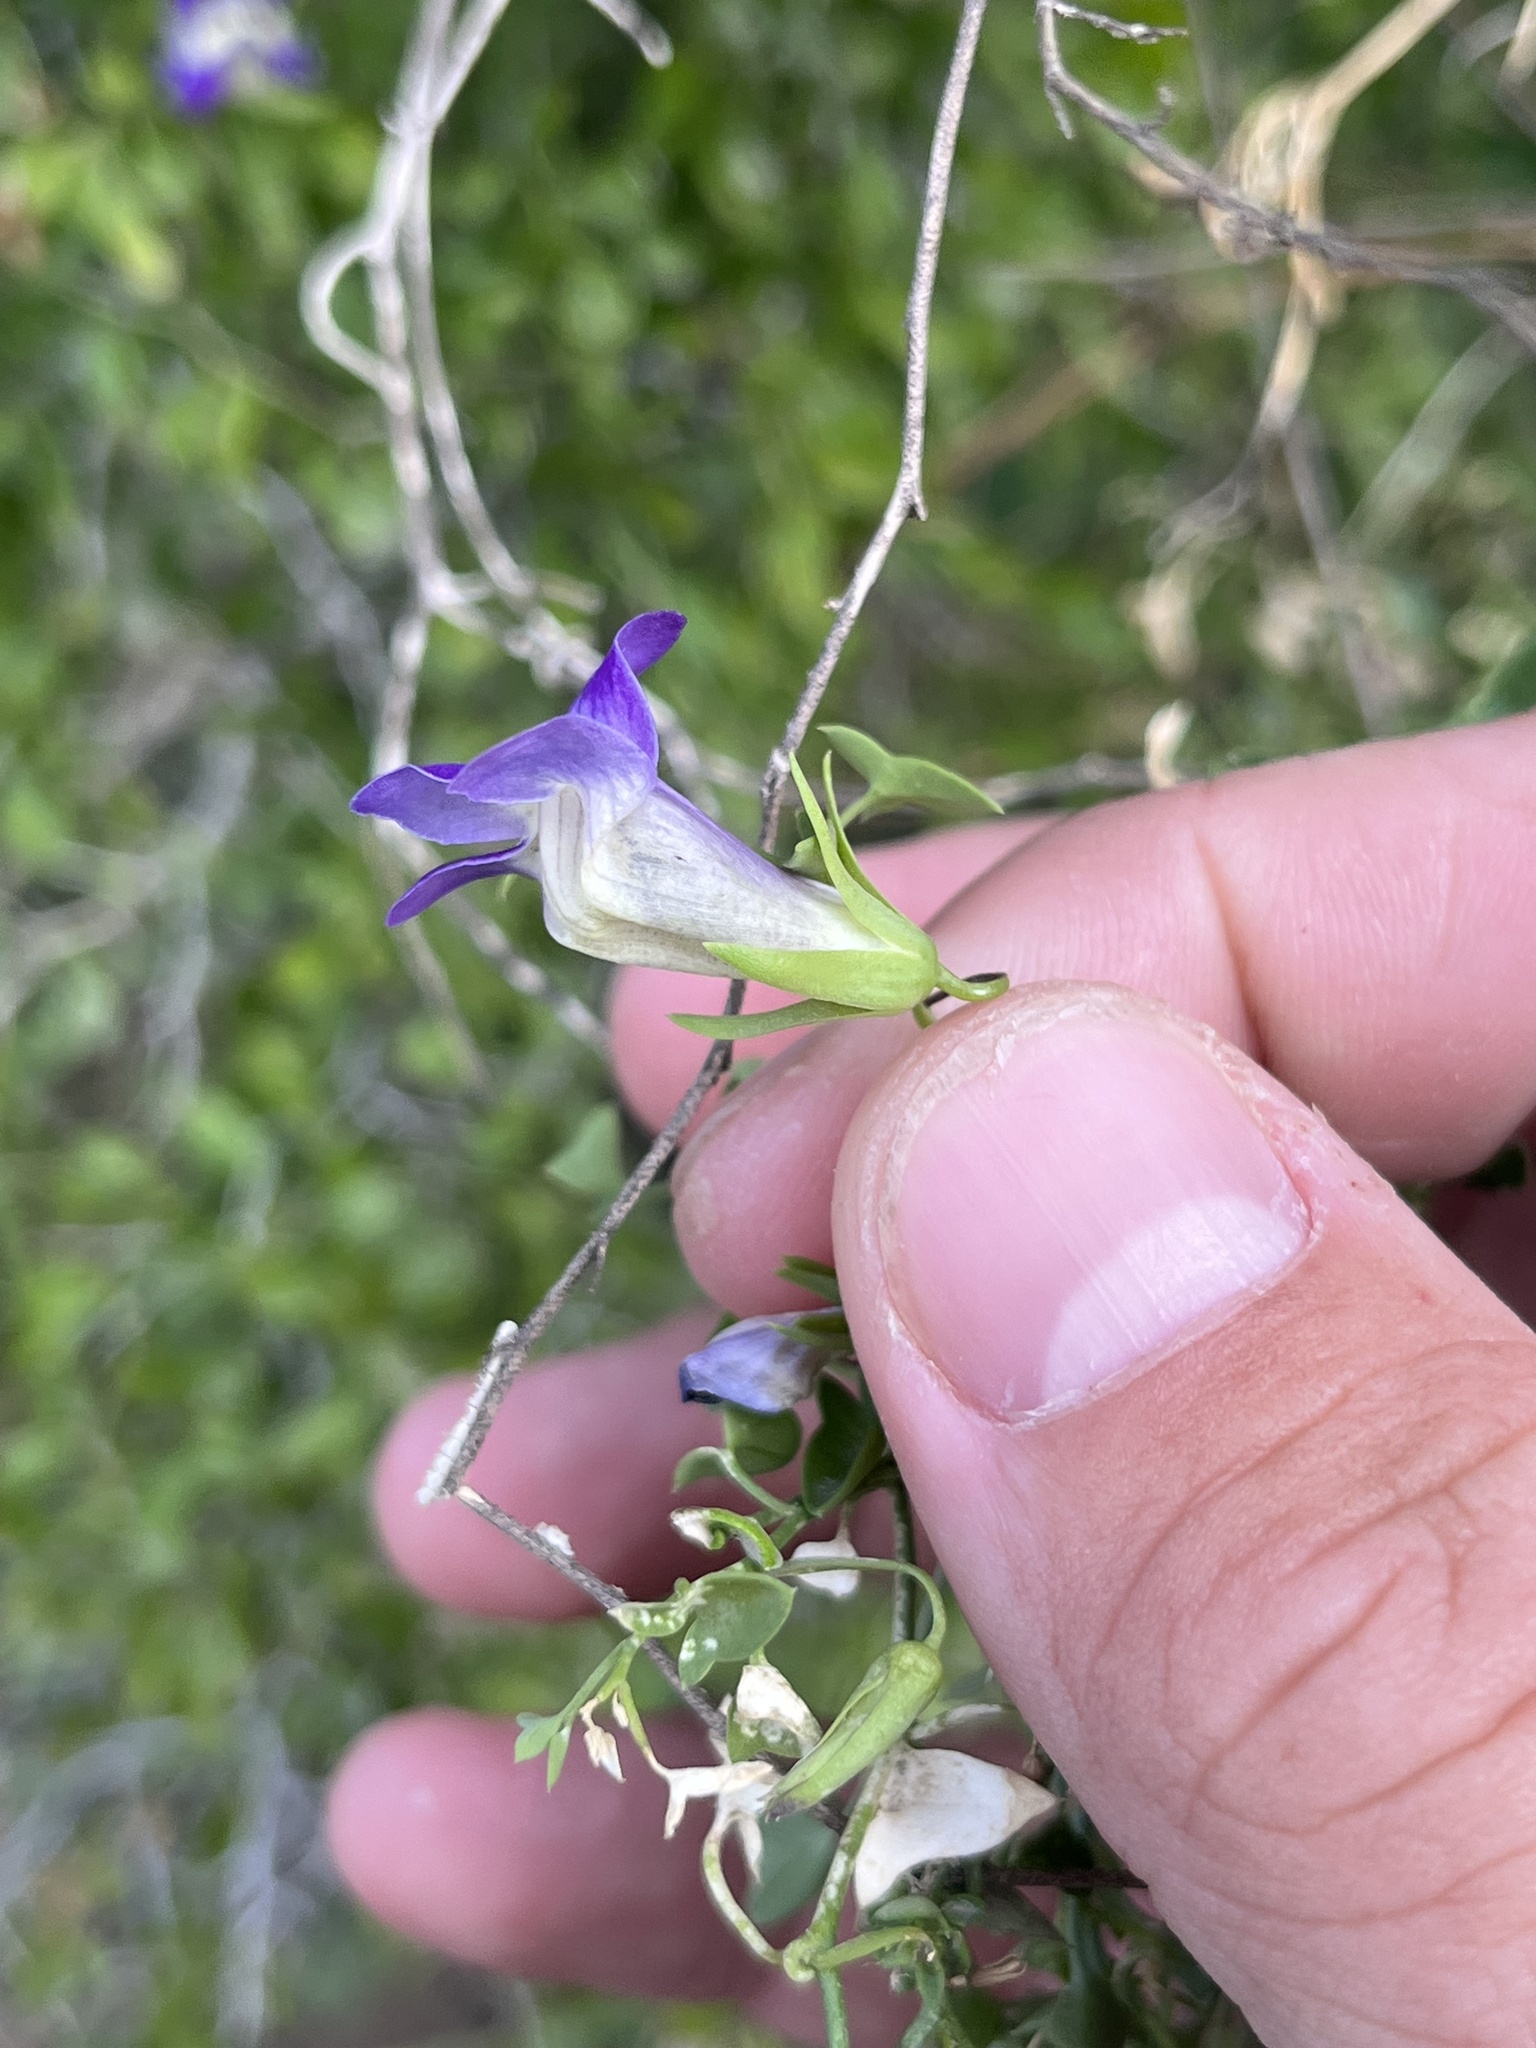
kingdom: Plantae
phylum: Tracheophyta
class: Magnoliopsida
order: Lamiales
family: Plantaginaceae
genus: Maurandella
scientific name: Maurandella antirrhiniflora
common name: Violet twining-snapdragon
